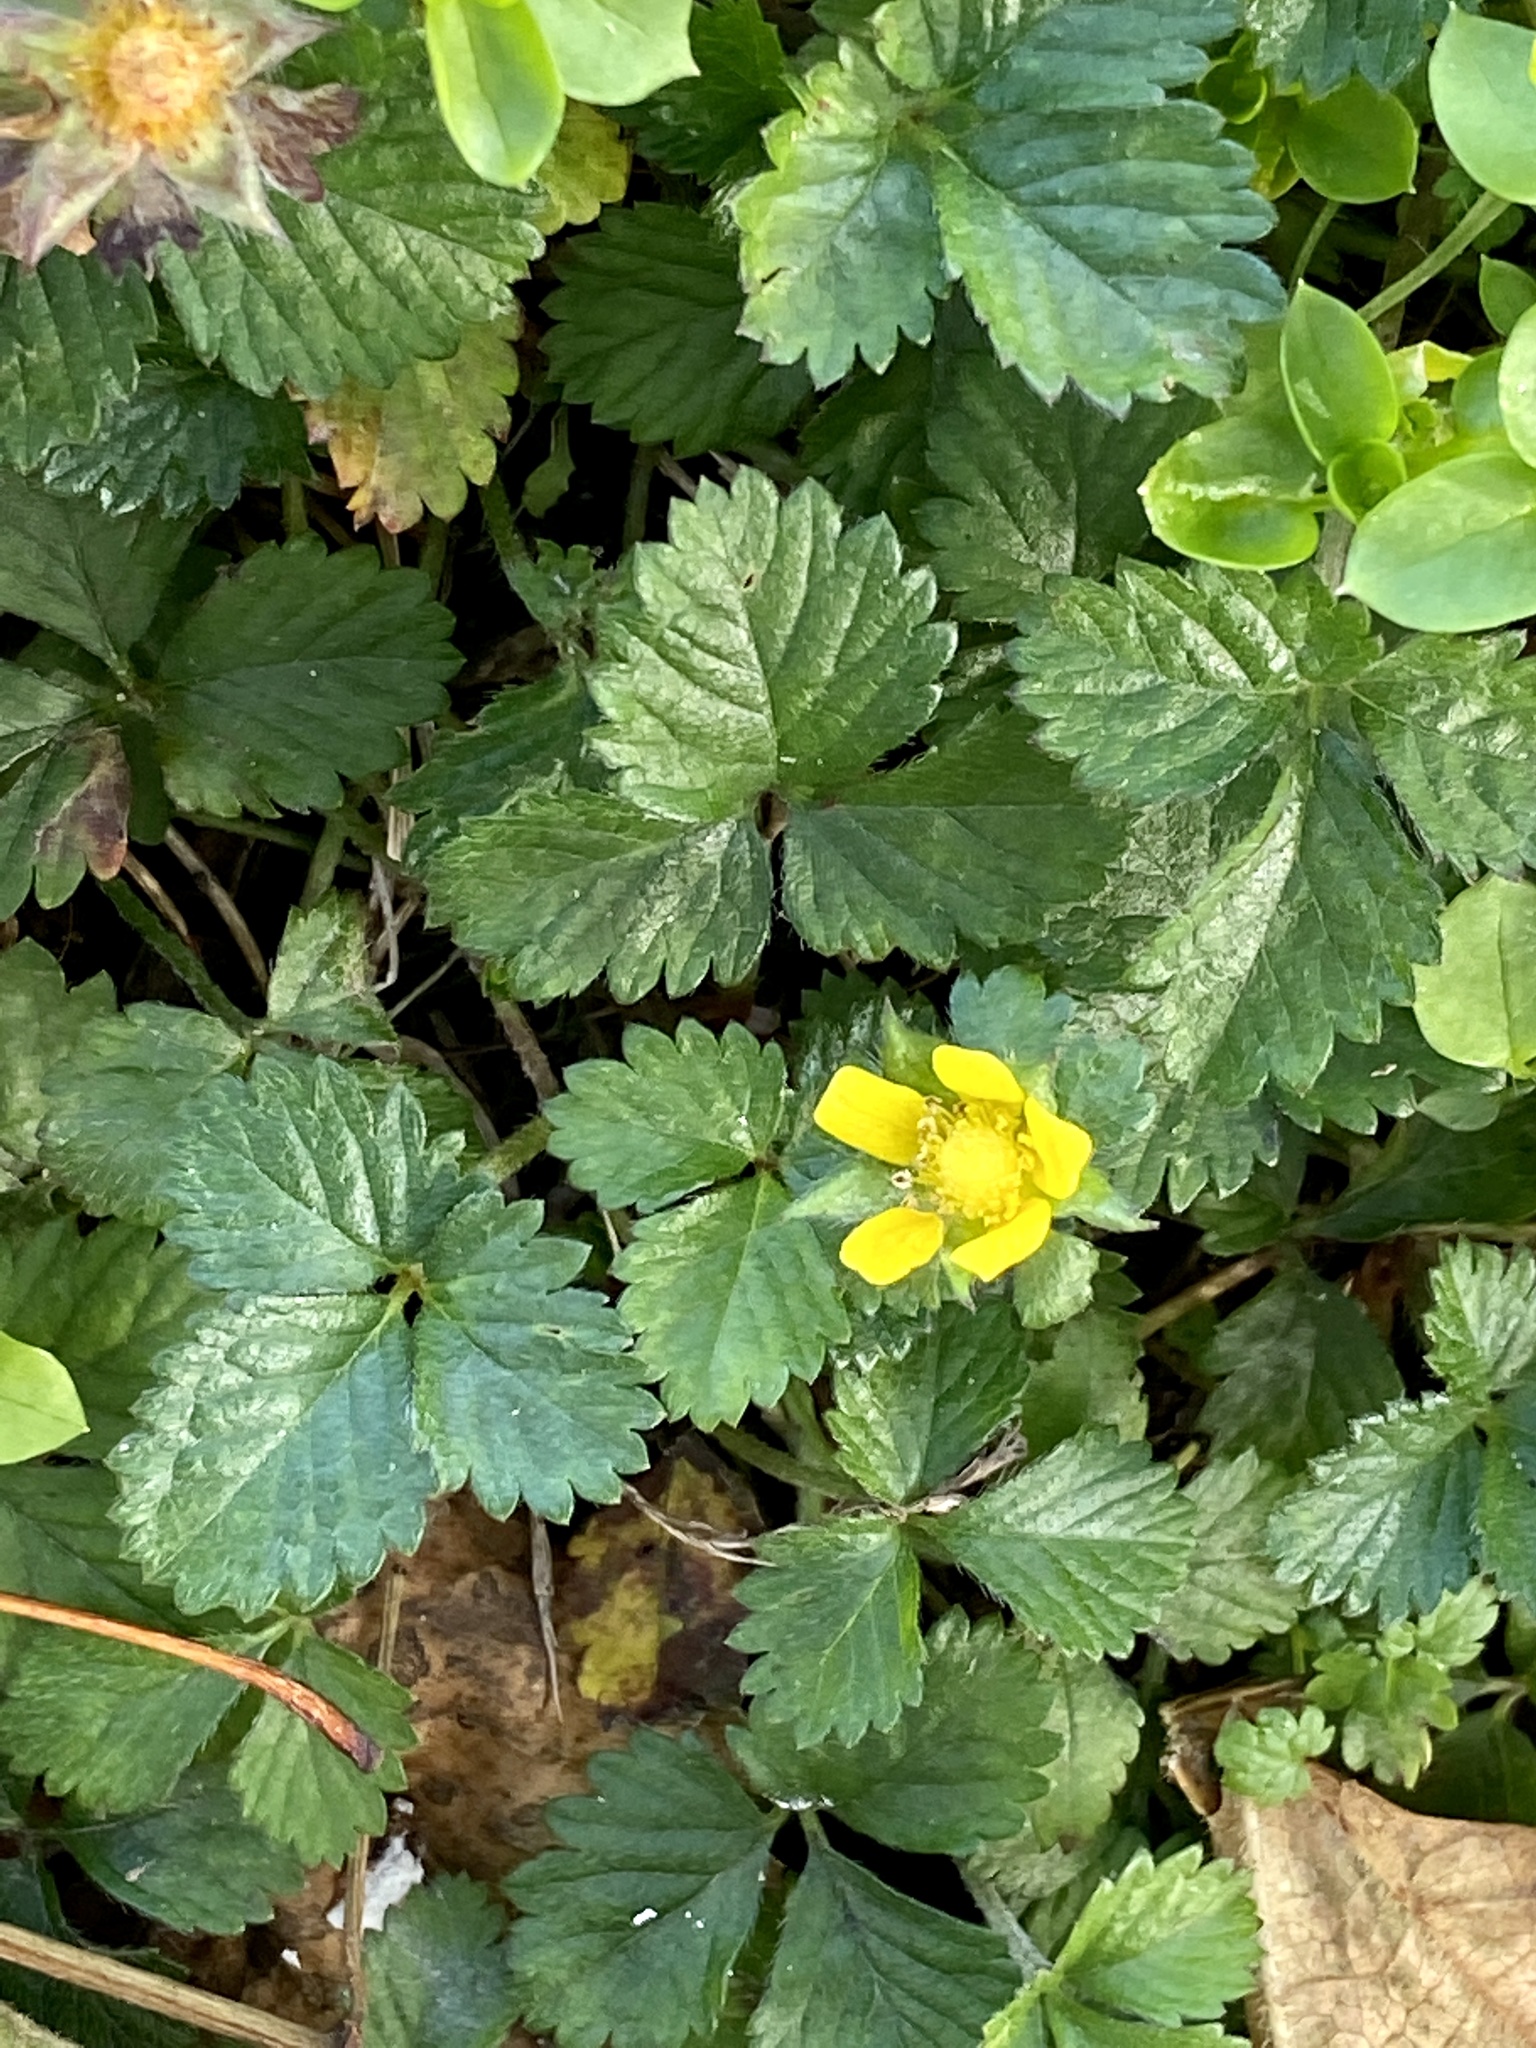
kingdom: Plantae
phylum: Tracheophyta
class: Magnoliopsida
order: Rosales
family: Rosaceae
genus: Potentilla
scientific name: Potentilla indica
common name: Yellow-flowered strawberry
